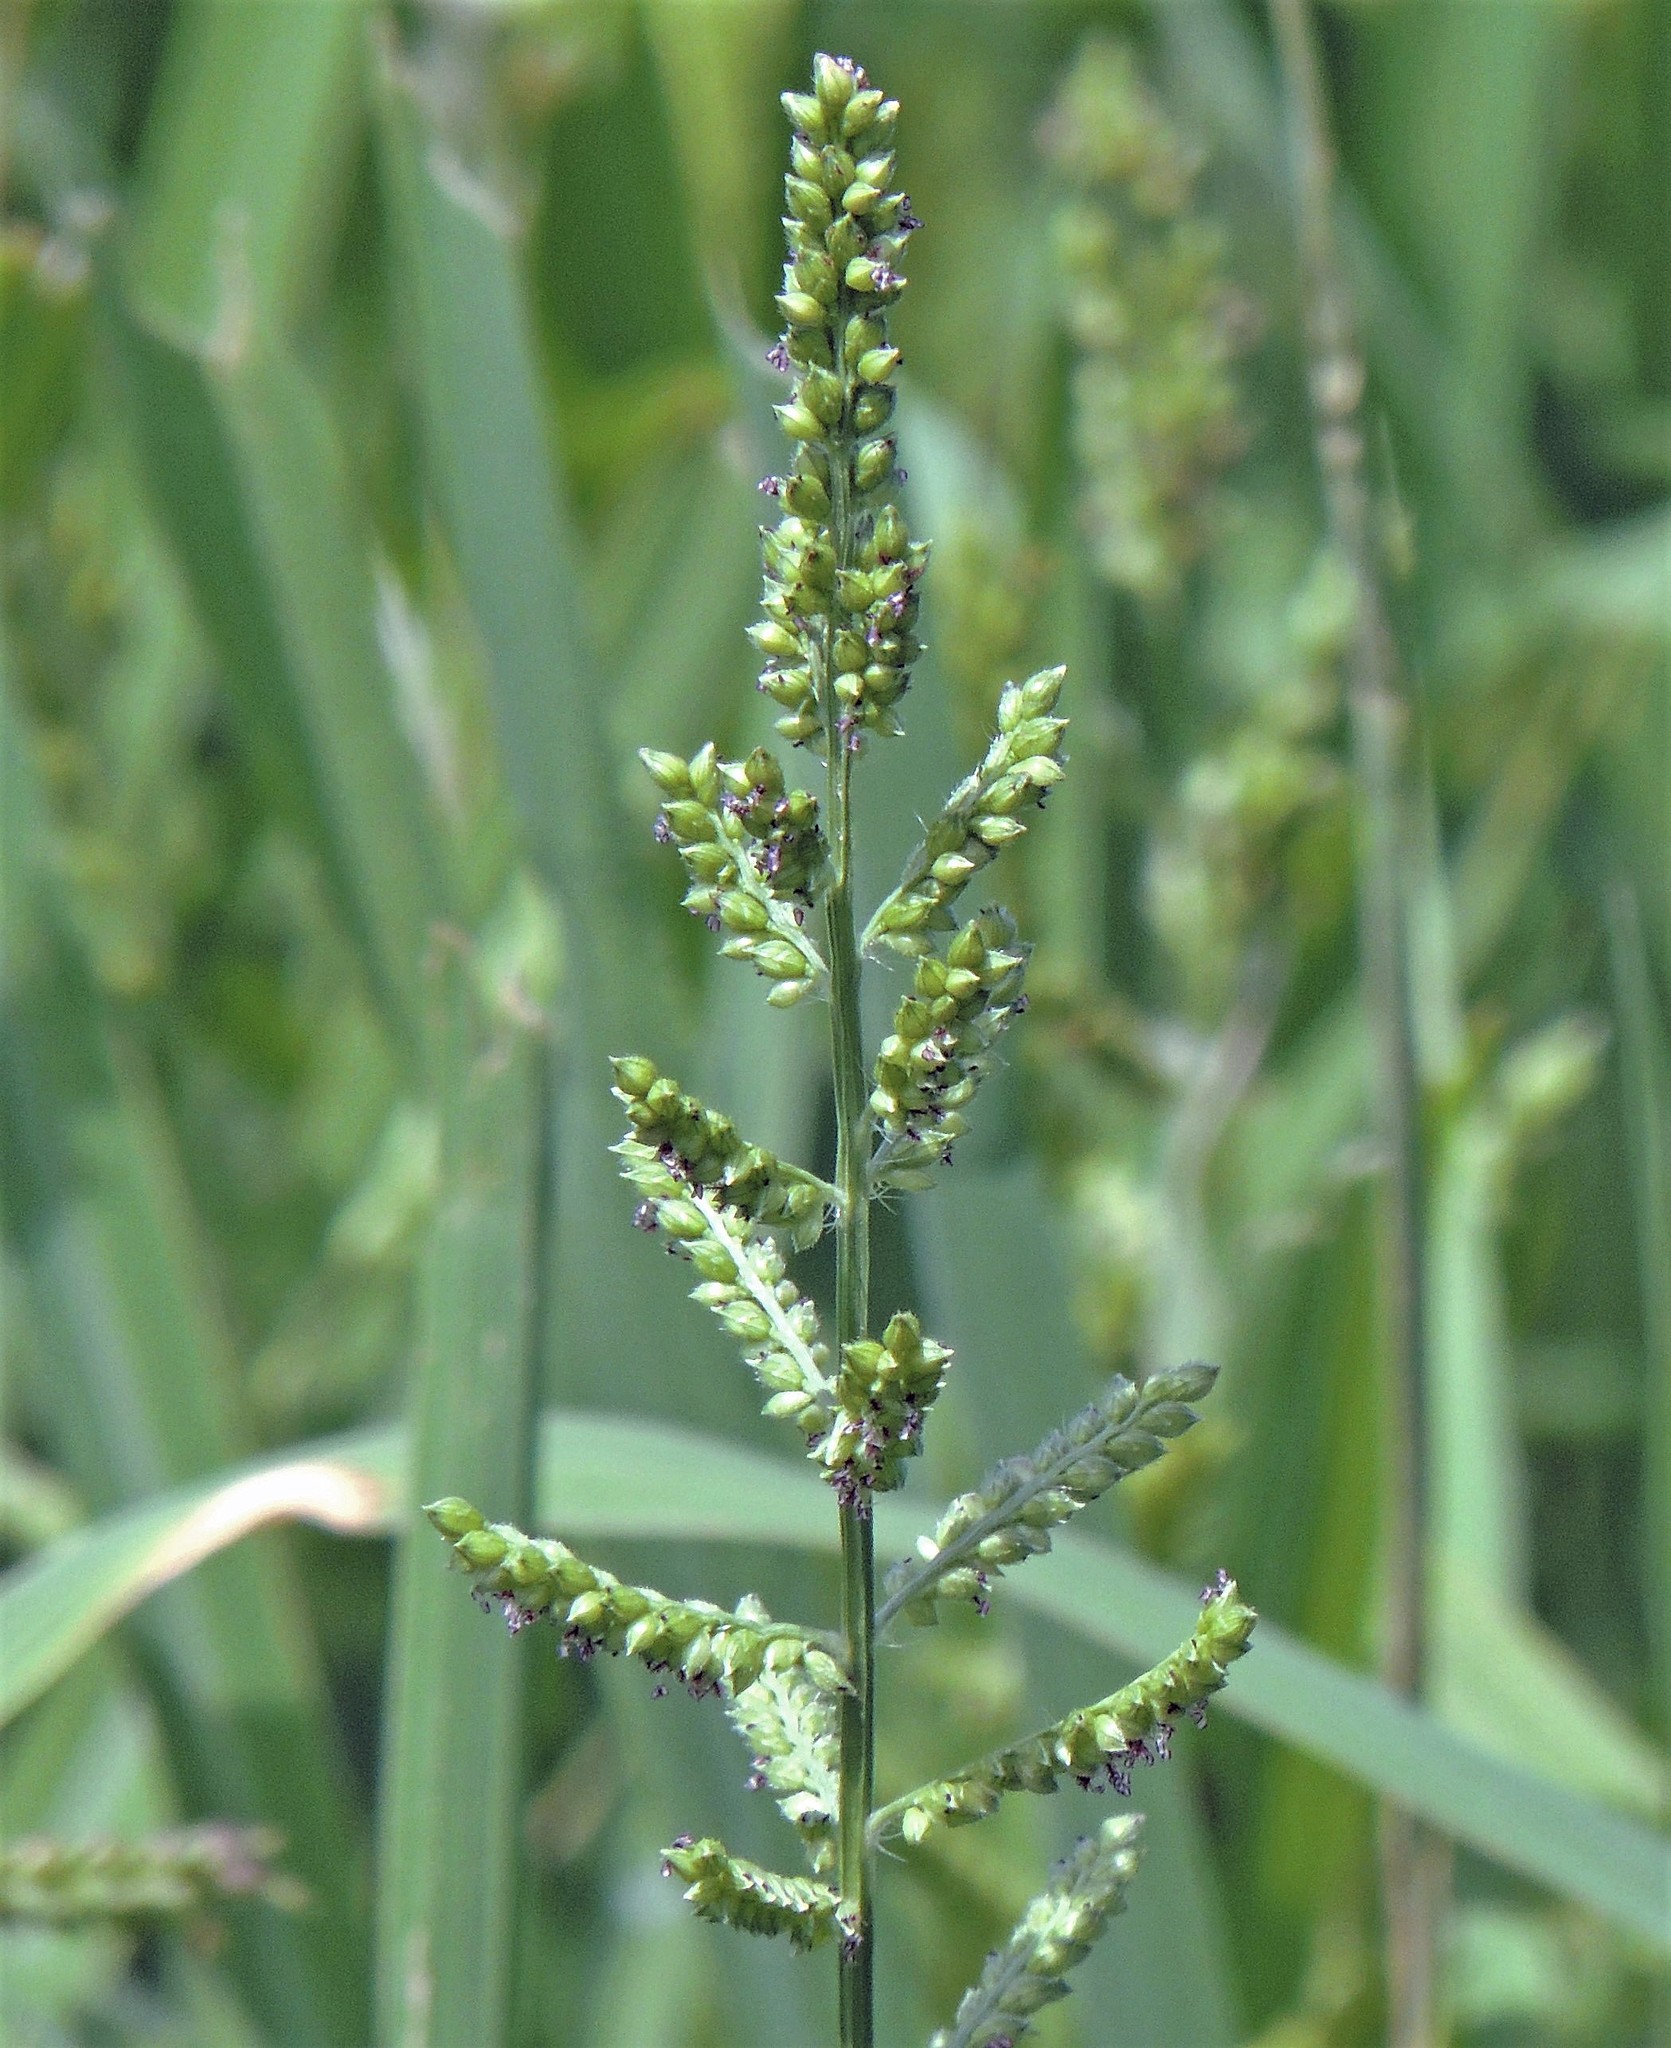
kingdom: Plantae
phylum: Tracheophyta
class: Liliopsida
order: Poales
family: Poaceae
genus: Echinochloa
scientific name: Echinochloa colonum
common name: Jungle rice
